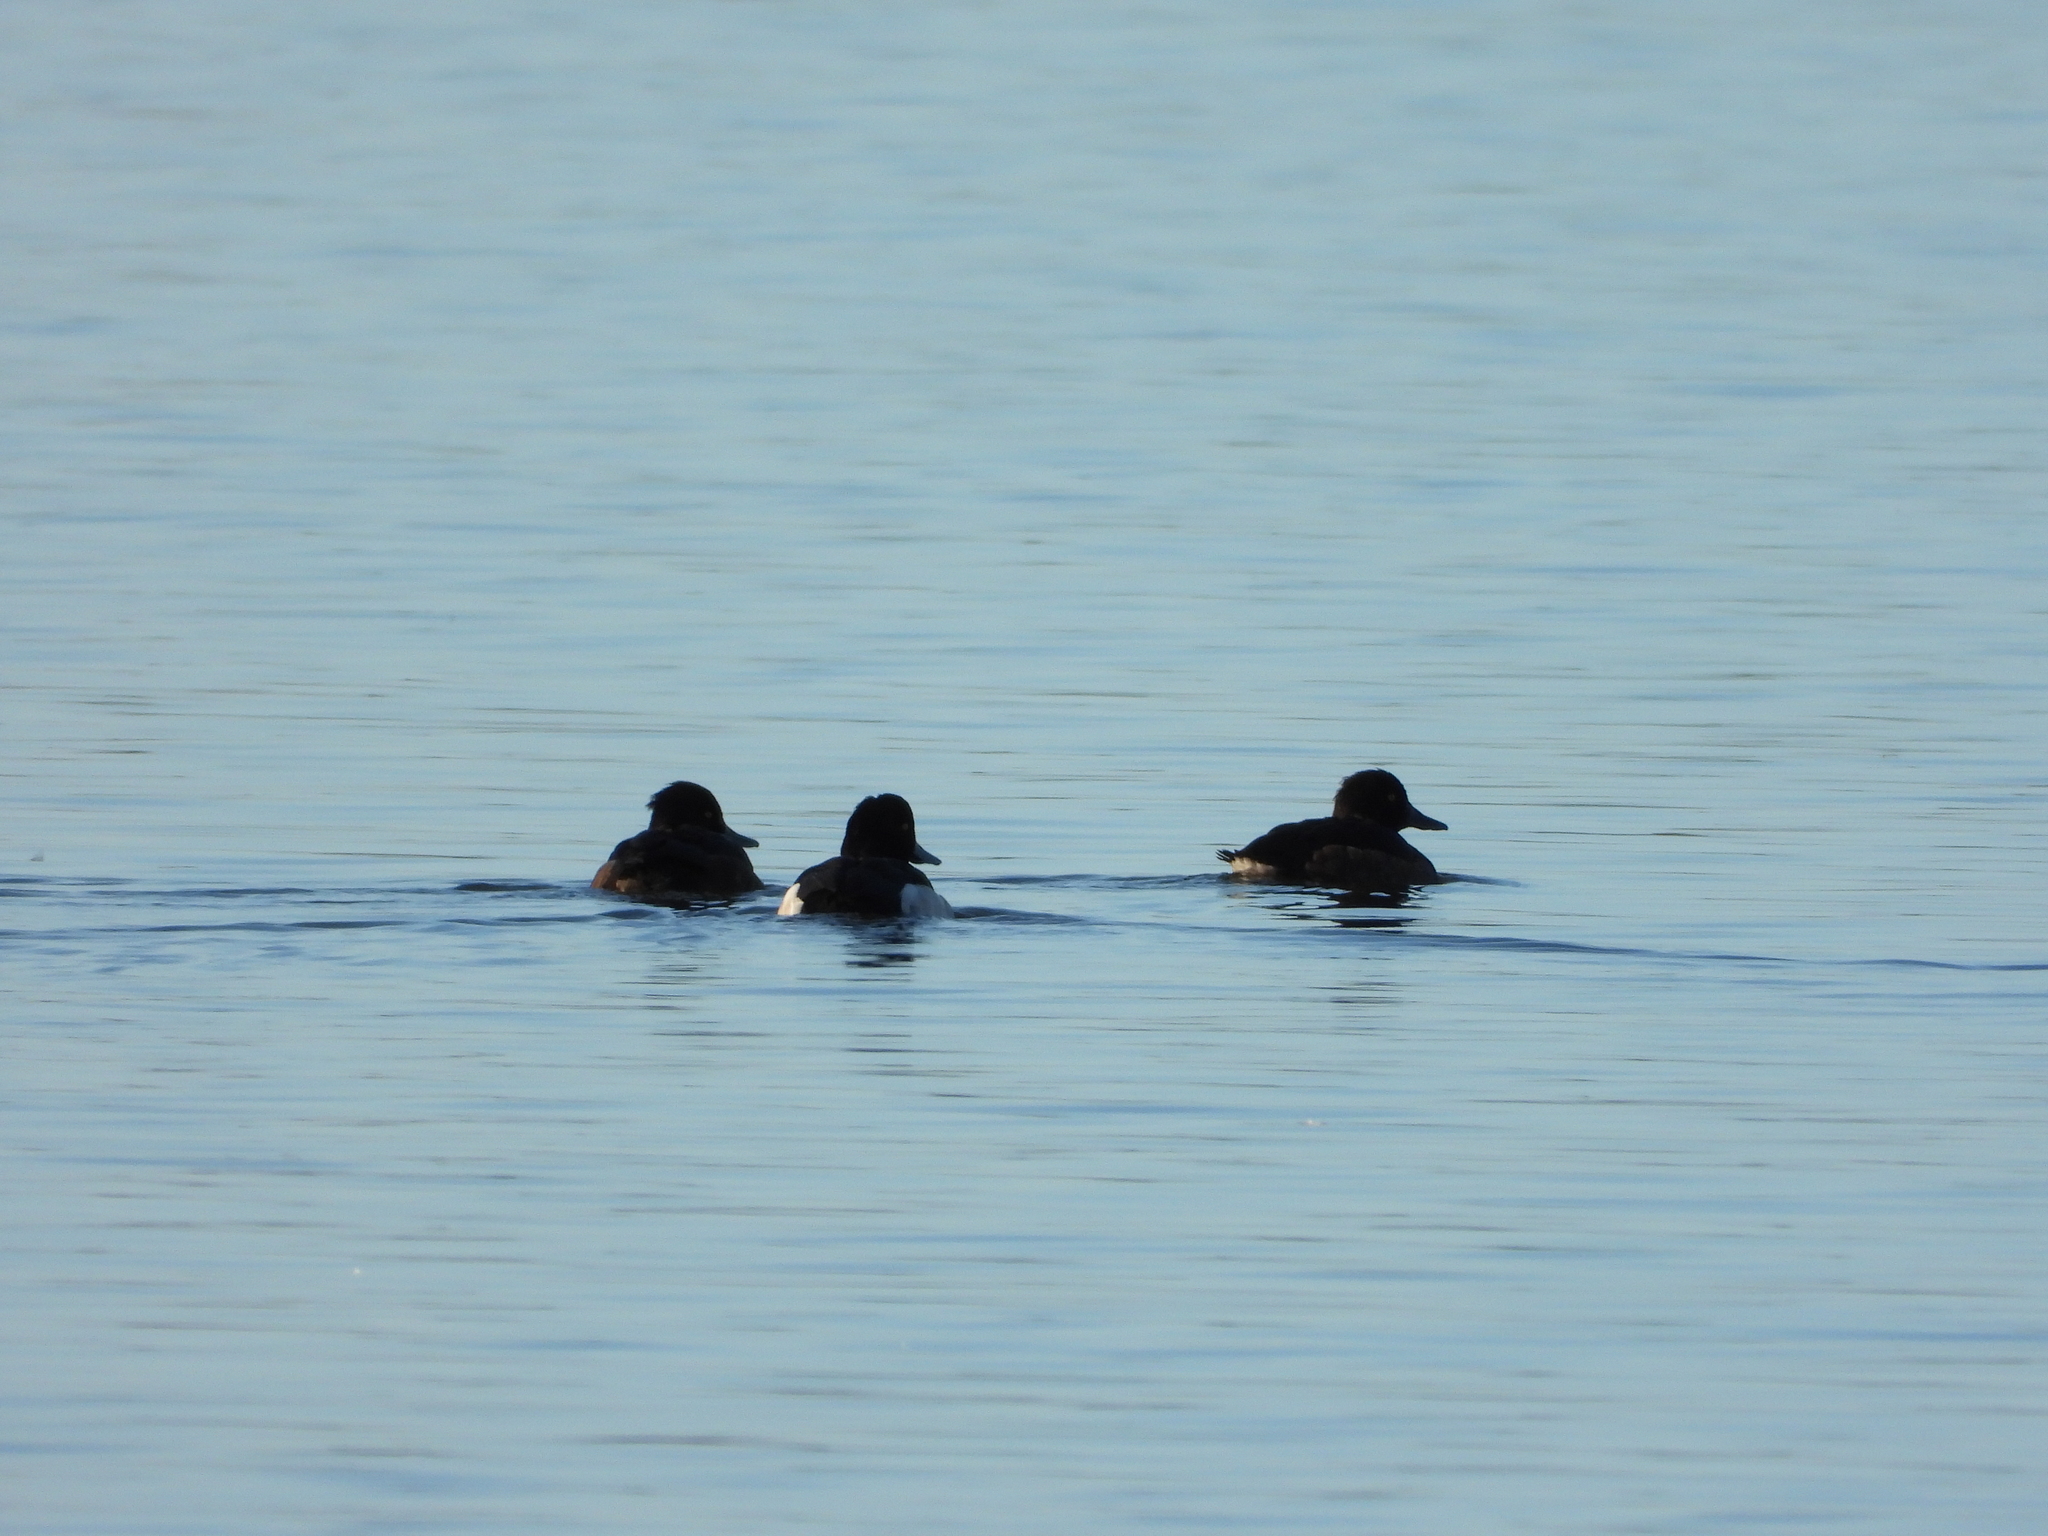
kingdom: Animalia
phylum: Chordata
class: Aves
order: Anseriformes
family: Anatidae
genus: Aythya
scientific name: Aythya fuligula
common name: Tufted duck
